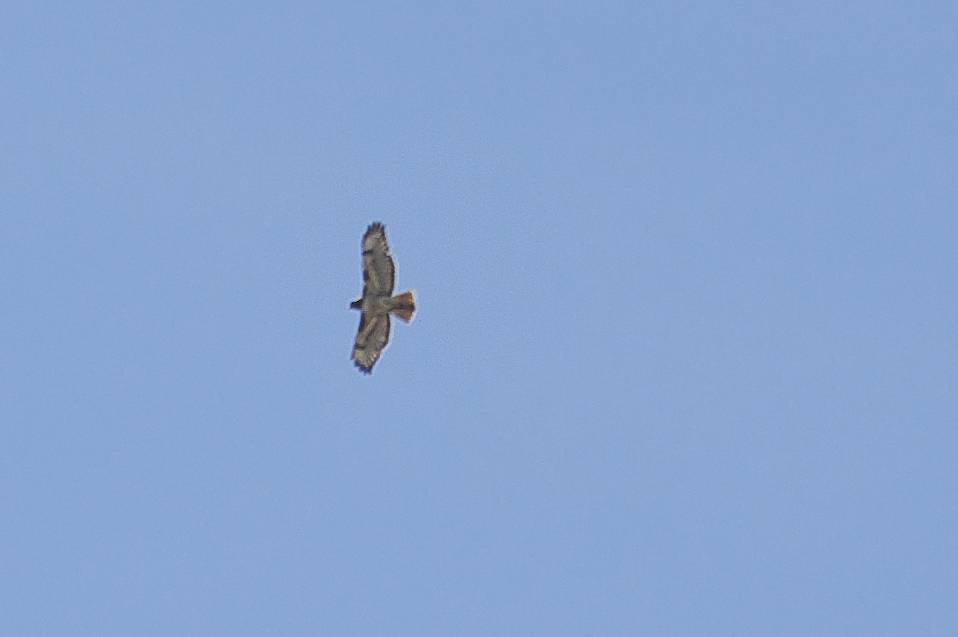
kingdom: Animalia
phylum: Chordata
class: Aves
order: Accipitriformes
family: Accipitridae
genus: Buteo
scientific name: Buteo jamaicensis
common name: Red-tailed hawk
